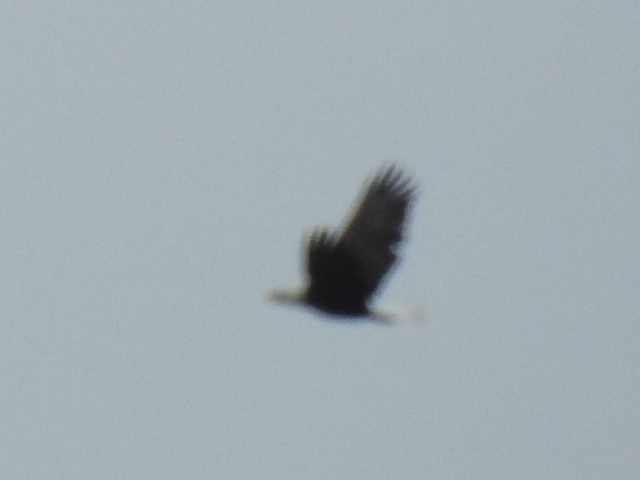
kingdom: Animalia
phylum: Chordata
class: Aves
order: Accipitriformes
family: Accipitridae
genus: Haliaeetus
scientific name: Haliaeetus leucocephalus
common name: Bald eagle
